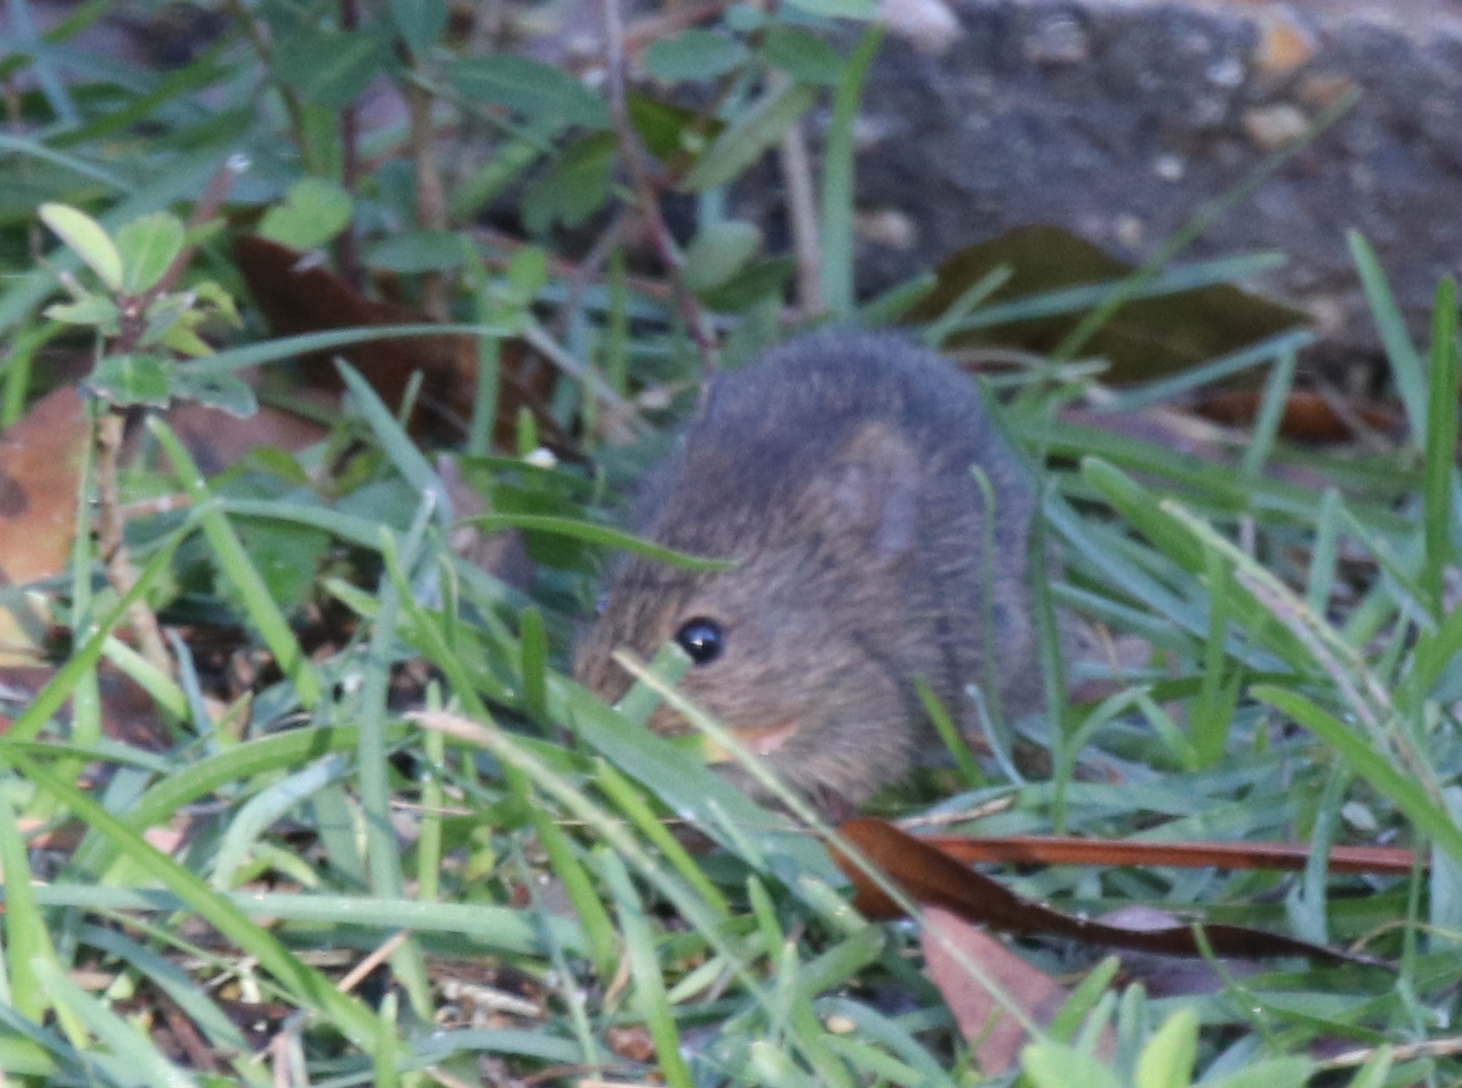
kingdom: Animalia
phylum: Chordata
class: Mammalia
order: Rodentia
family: Cricetidae
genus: Sigmodon
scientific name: Sigmodon hispidus
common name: Hispid cotton rat
